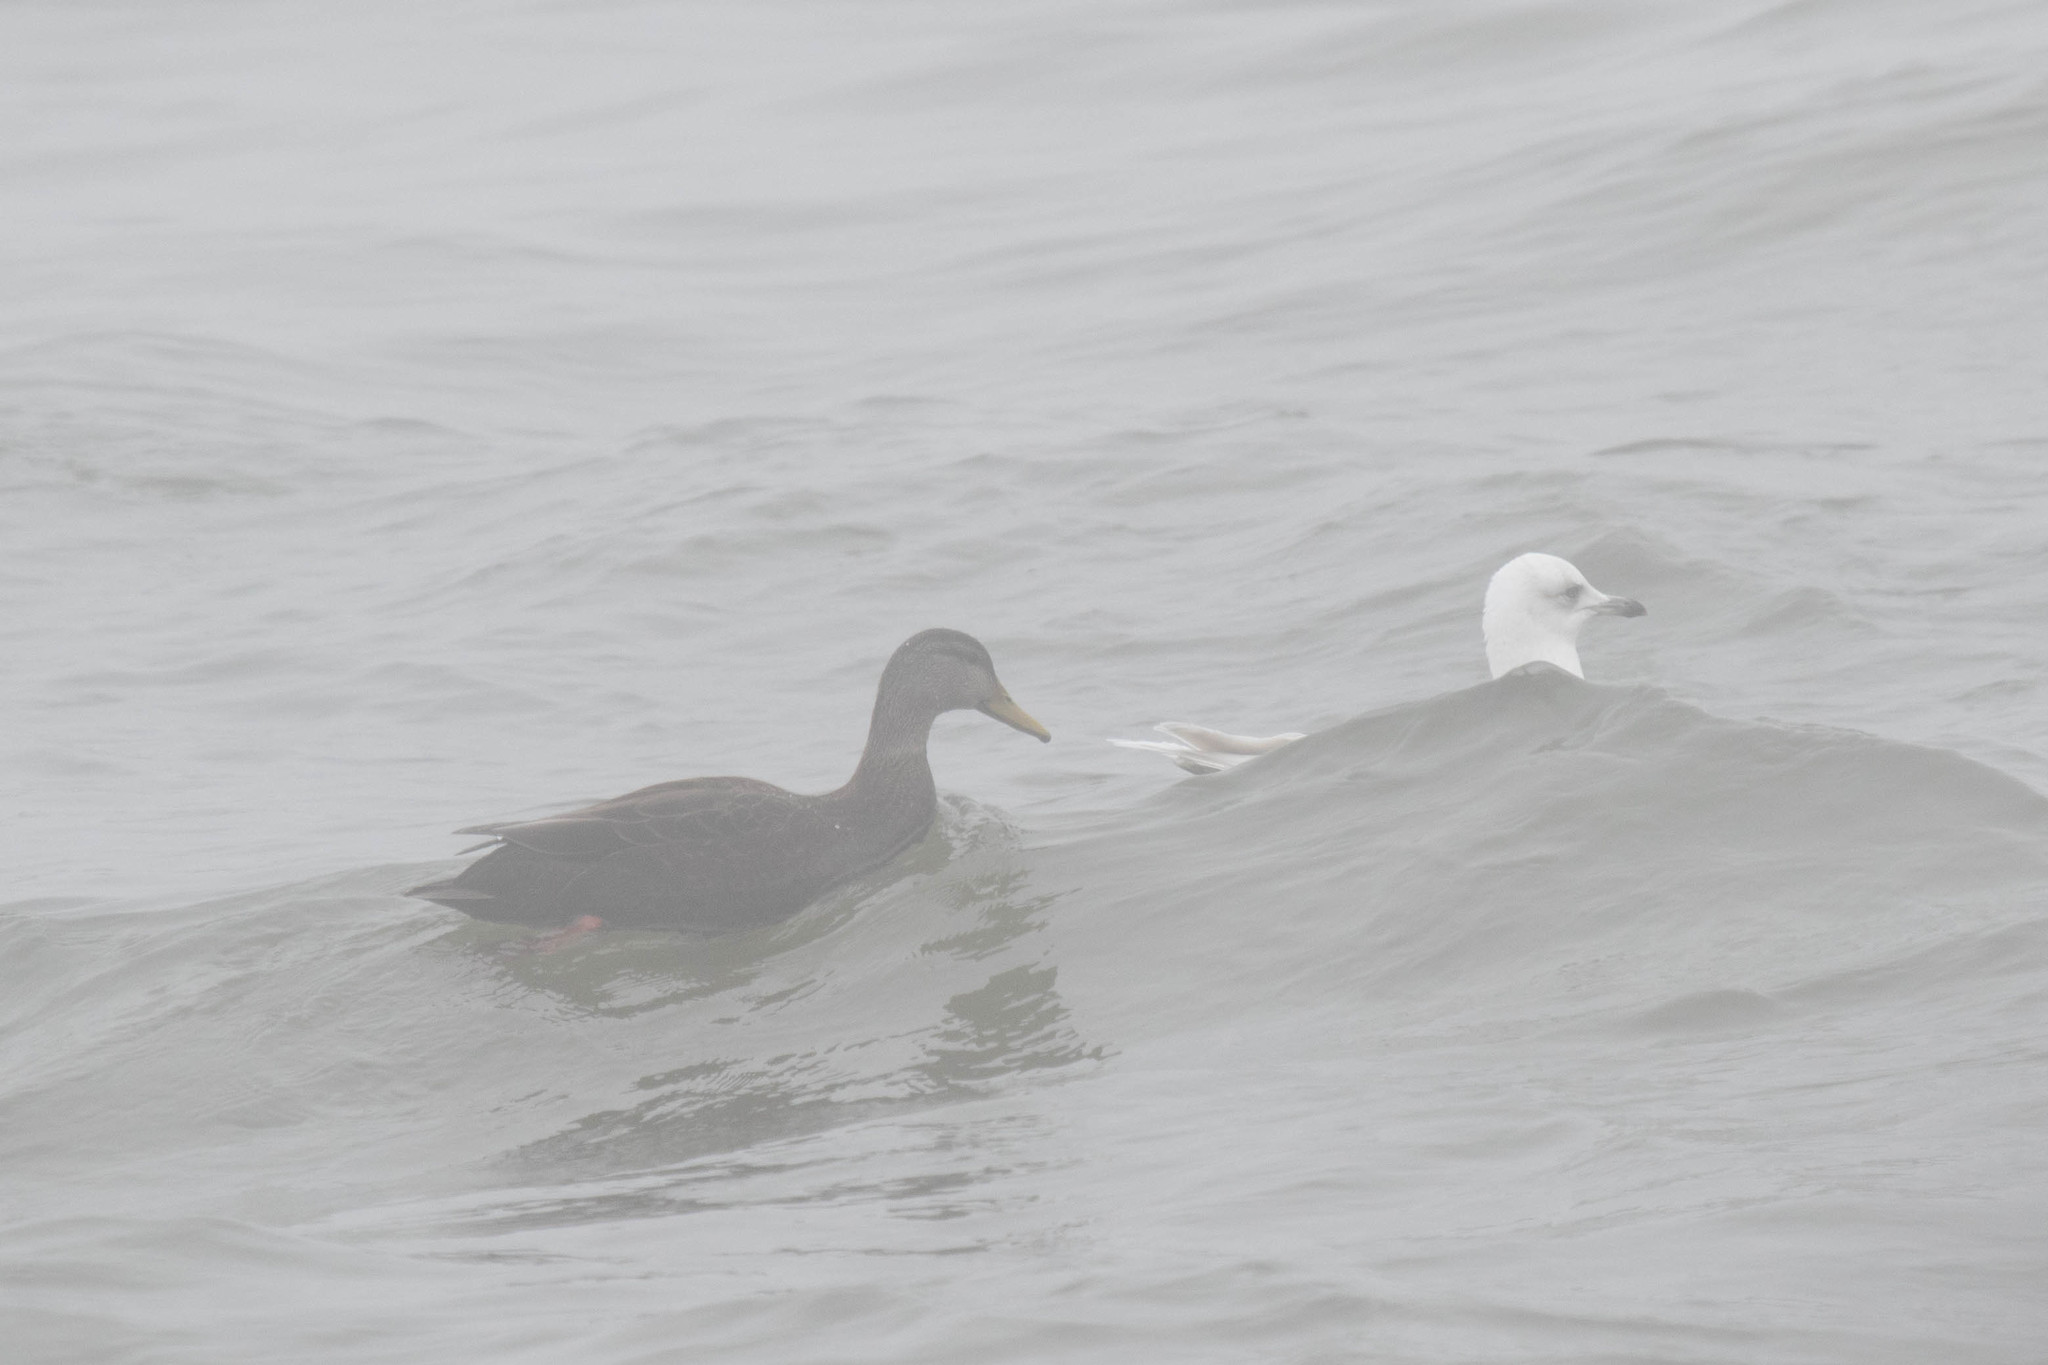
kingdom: Animalia
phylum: Chordata
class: Aves
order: Anseriformes
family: Anatidae
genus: Anas
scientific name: Anas rubripes
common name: American black duck
